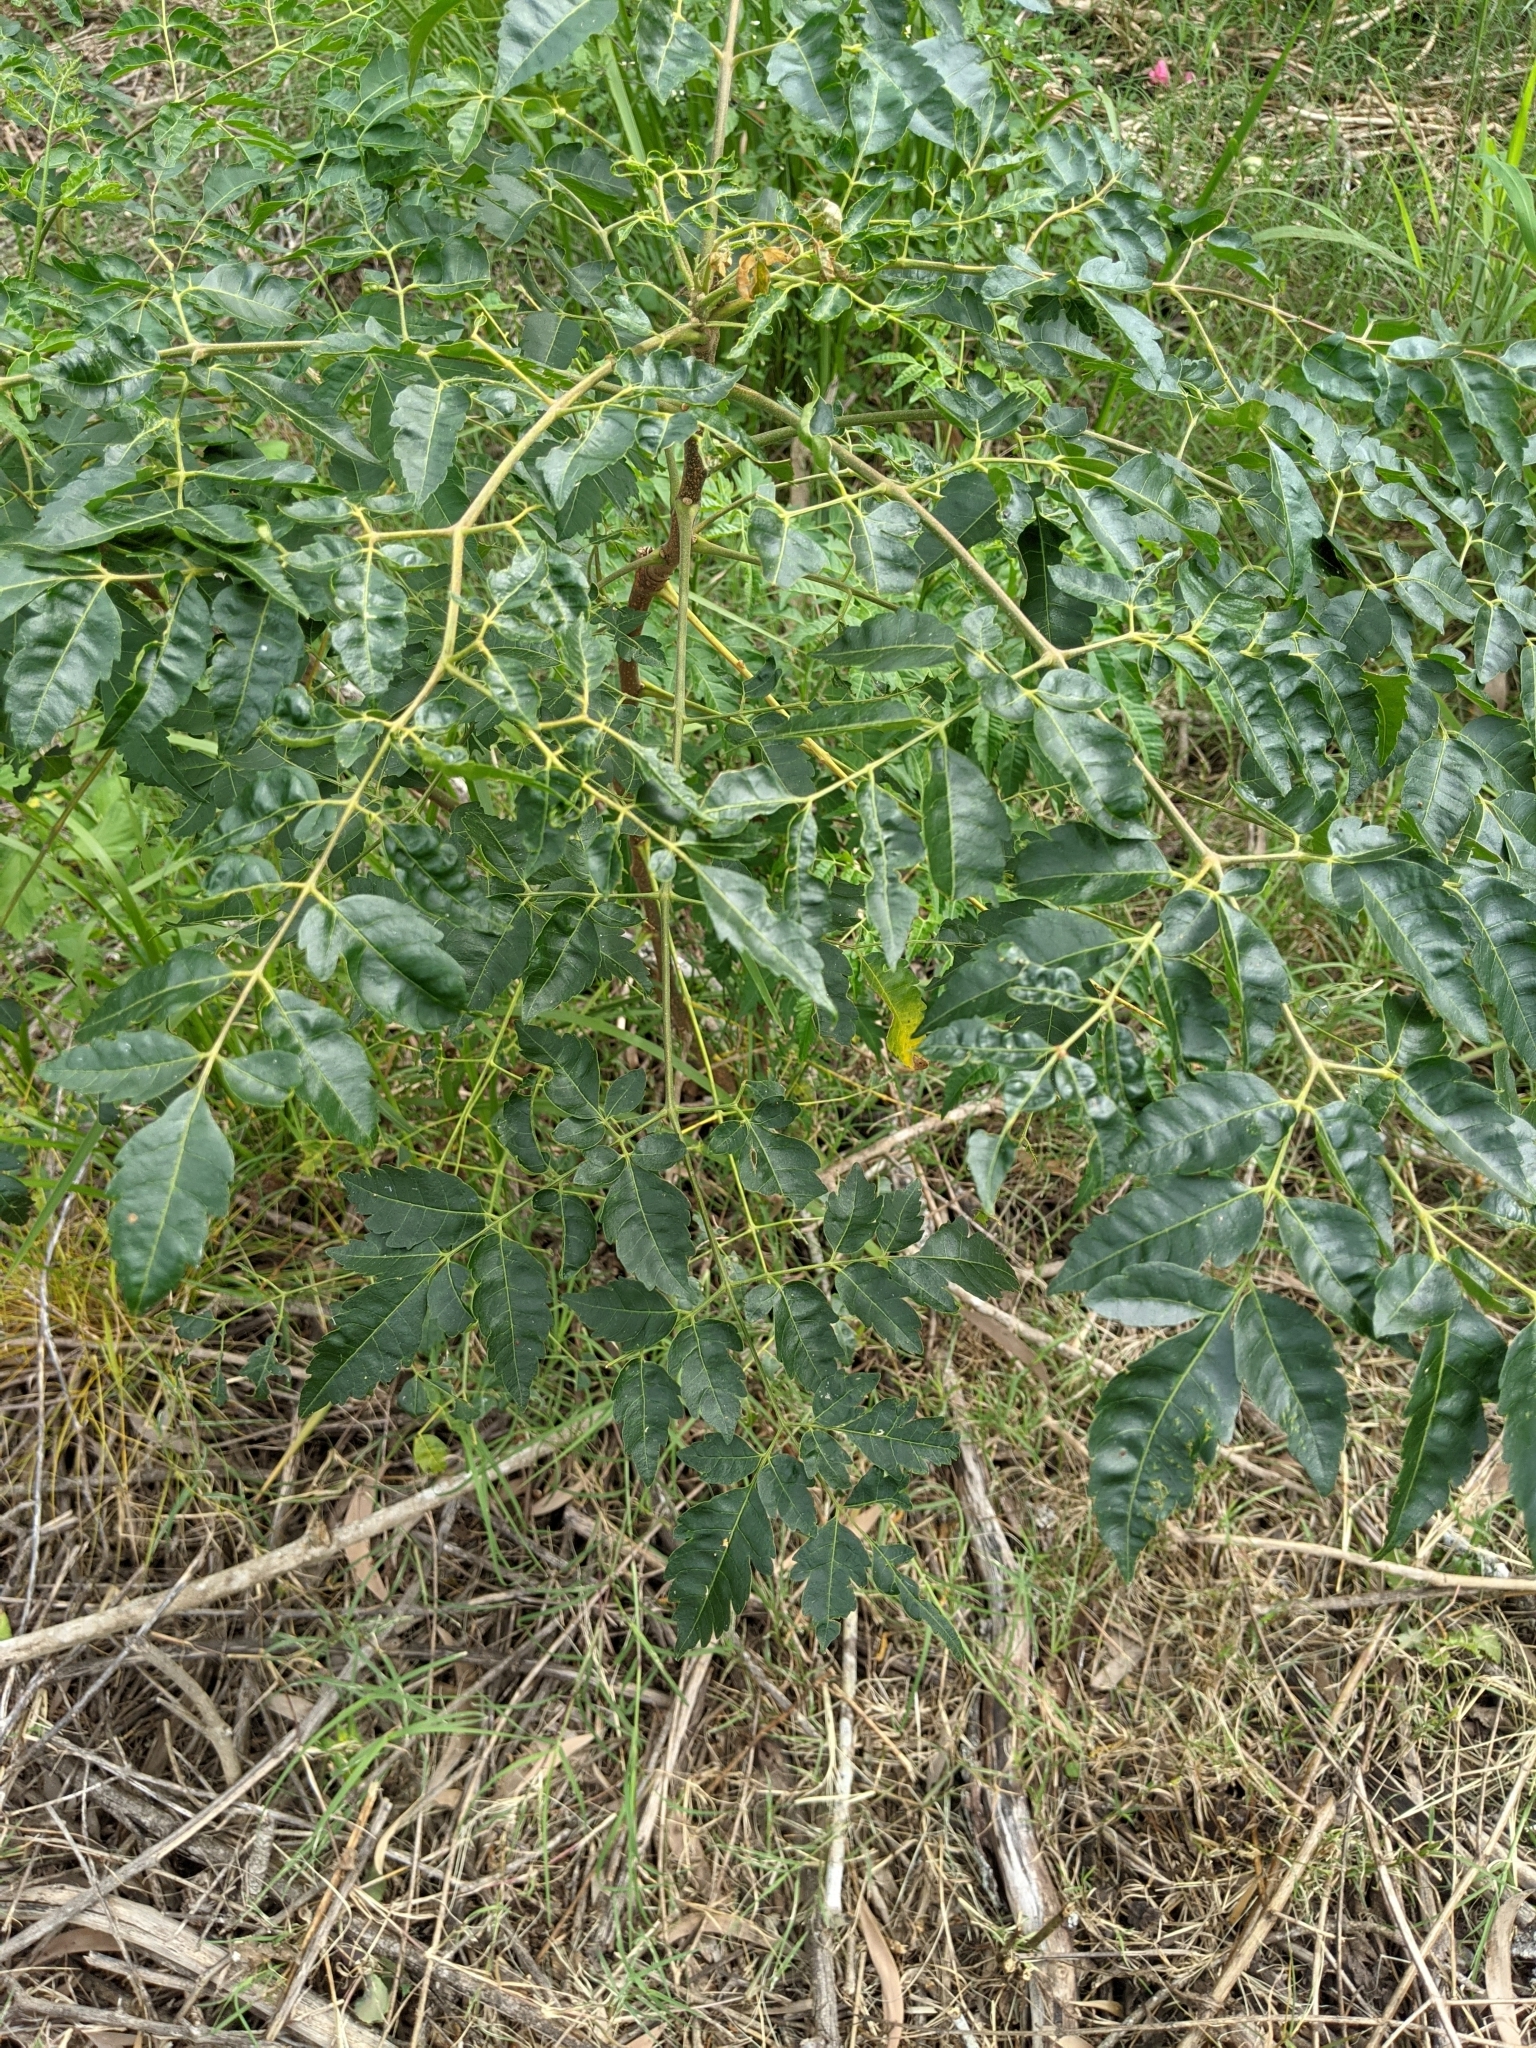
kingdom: Plantae
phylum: Tracheophyta
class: Magnoliopsida
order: Sapindales
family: Meliaceae
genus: Melia
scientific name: Melia azedarach
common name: Chinaberrytree
